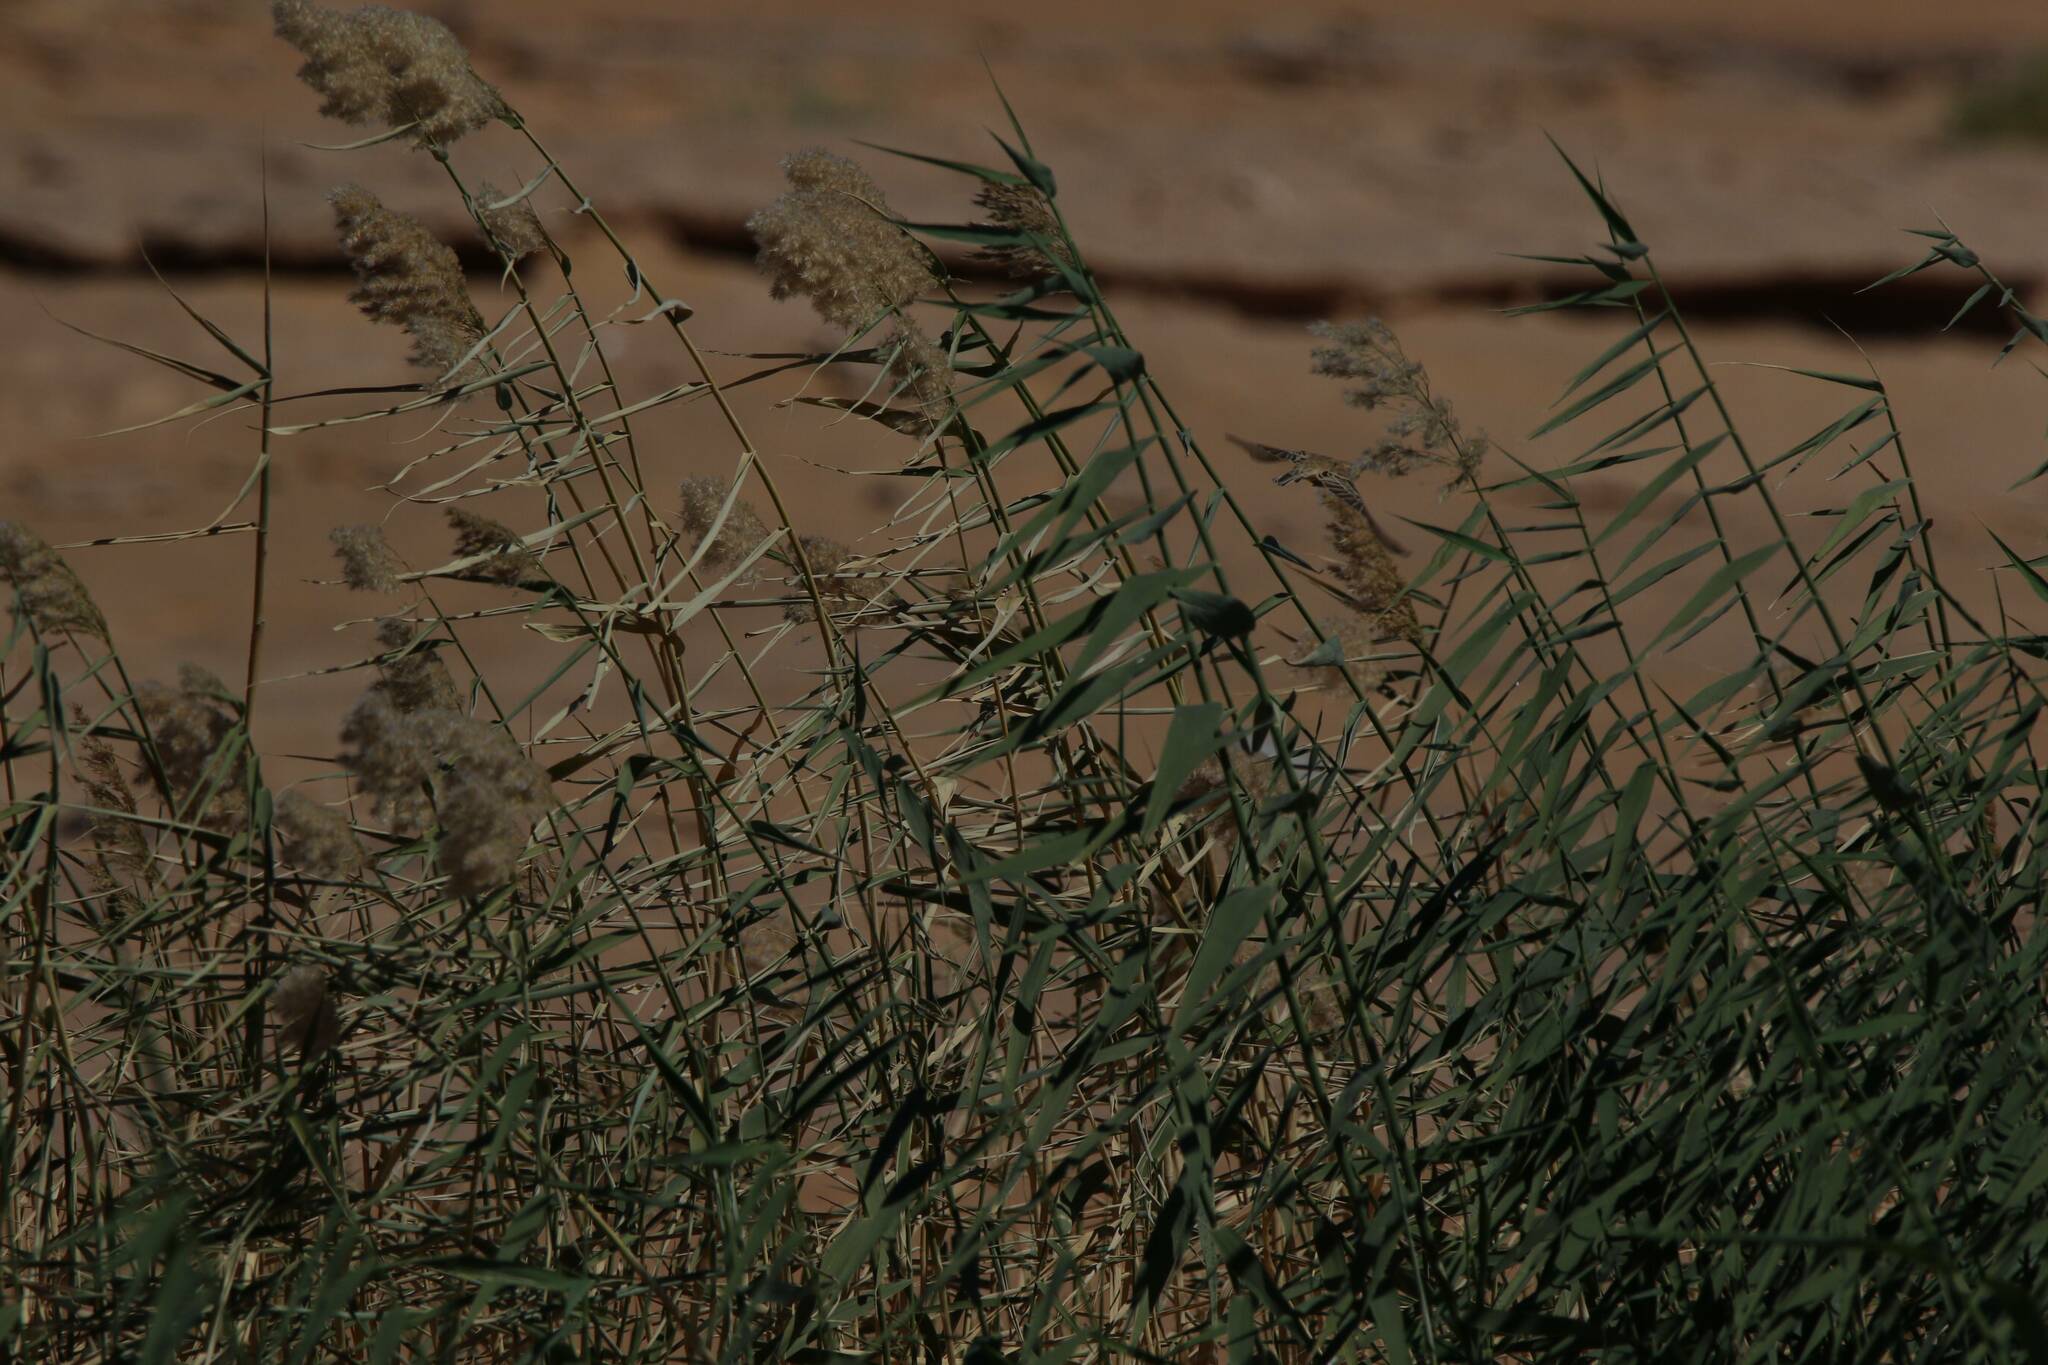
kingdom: Plantae
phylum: Tracheophyta
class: Liliopsida
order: Poales
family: Poaceae
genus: Phragmites
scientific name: Phragmites australis
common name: Common reed
